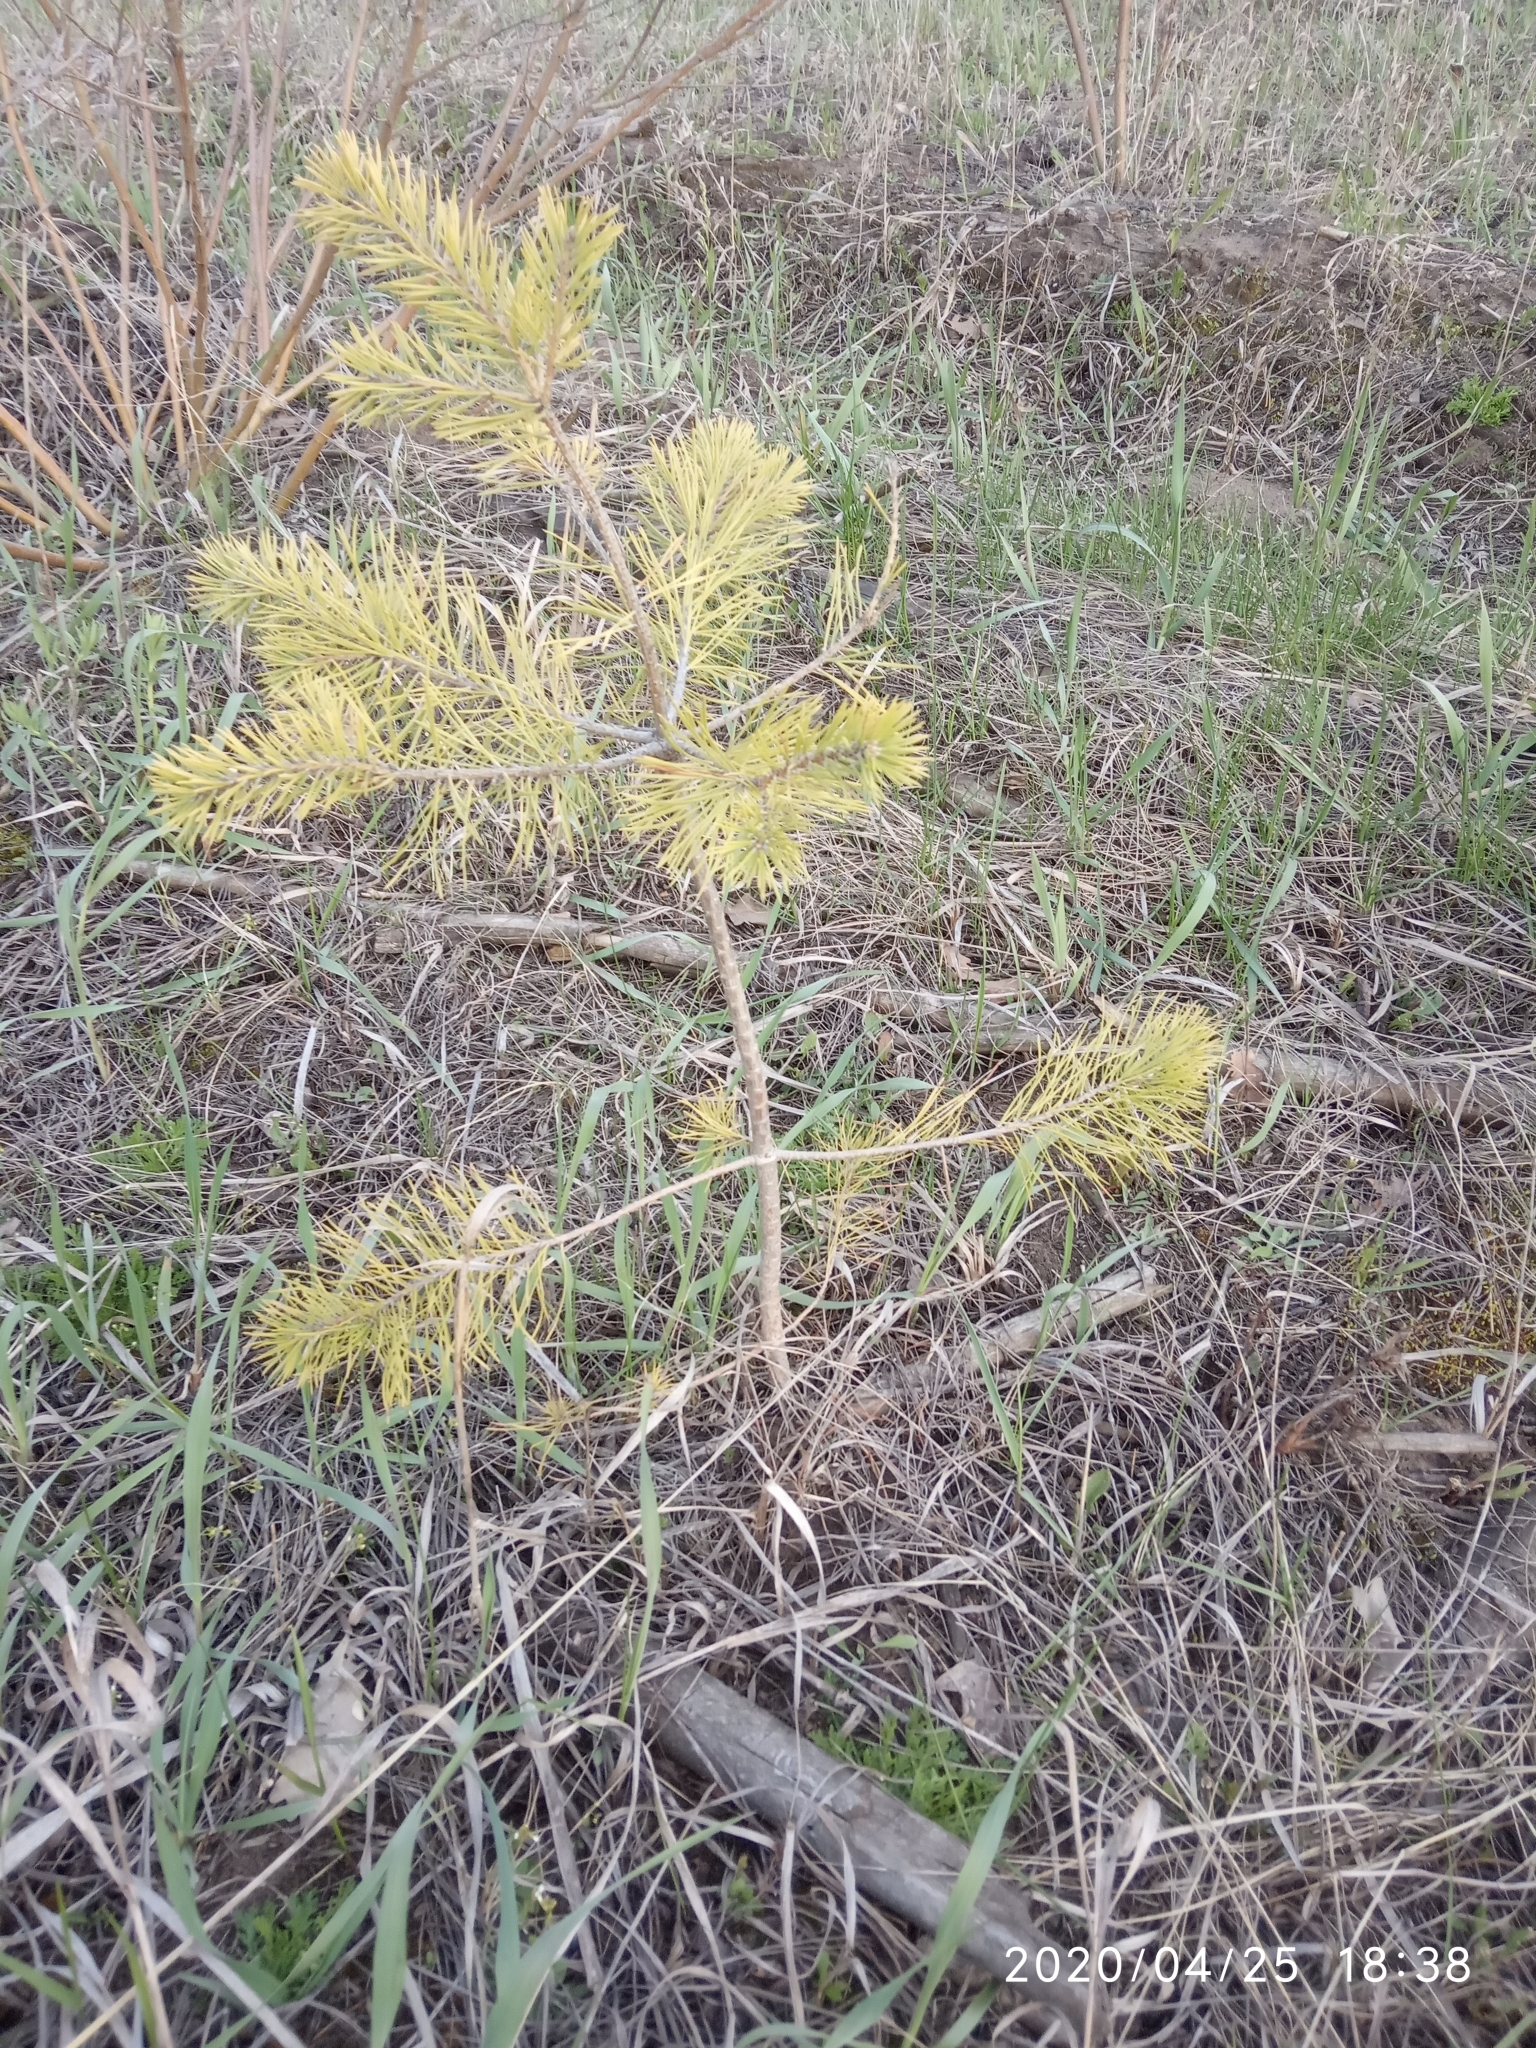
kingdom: Plantae
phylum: Tracheophyta
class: Pinopsida
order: Pinales
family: Pinaceae
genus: Pinus
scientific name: Pinus sylvestris
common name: Scots pine
